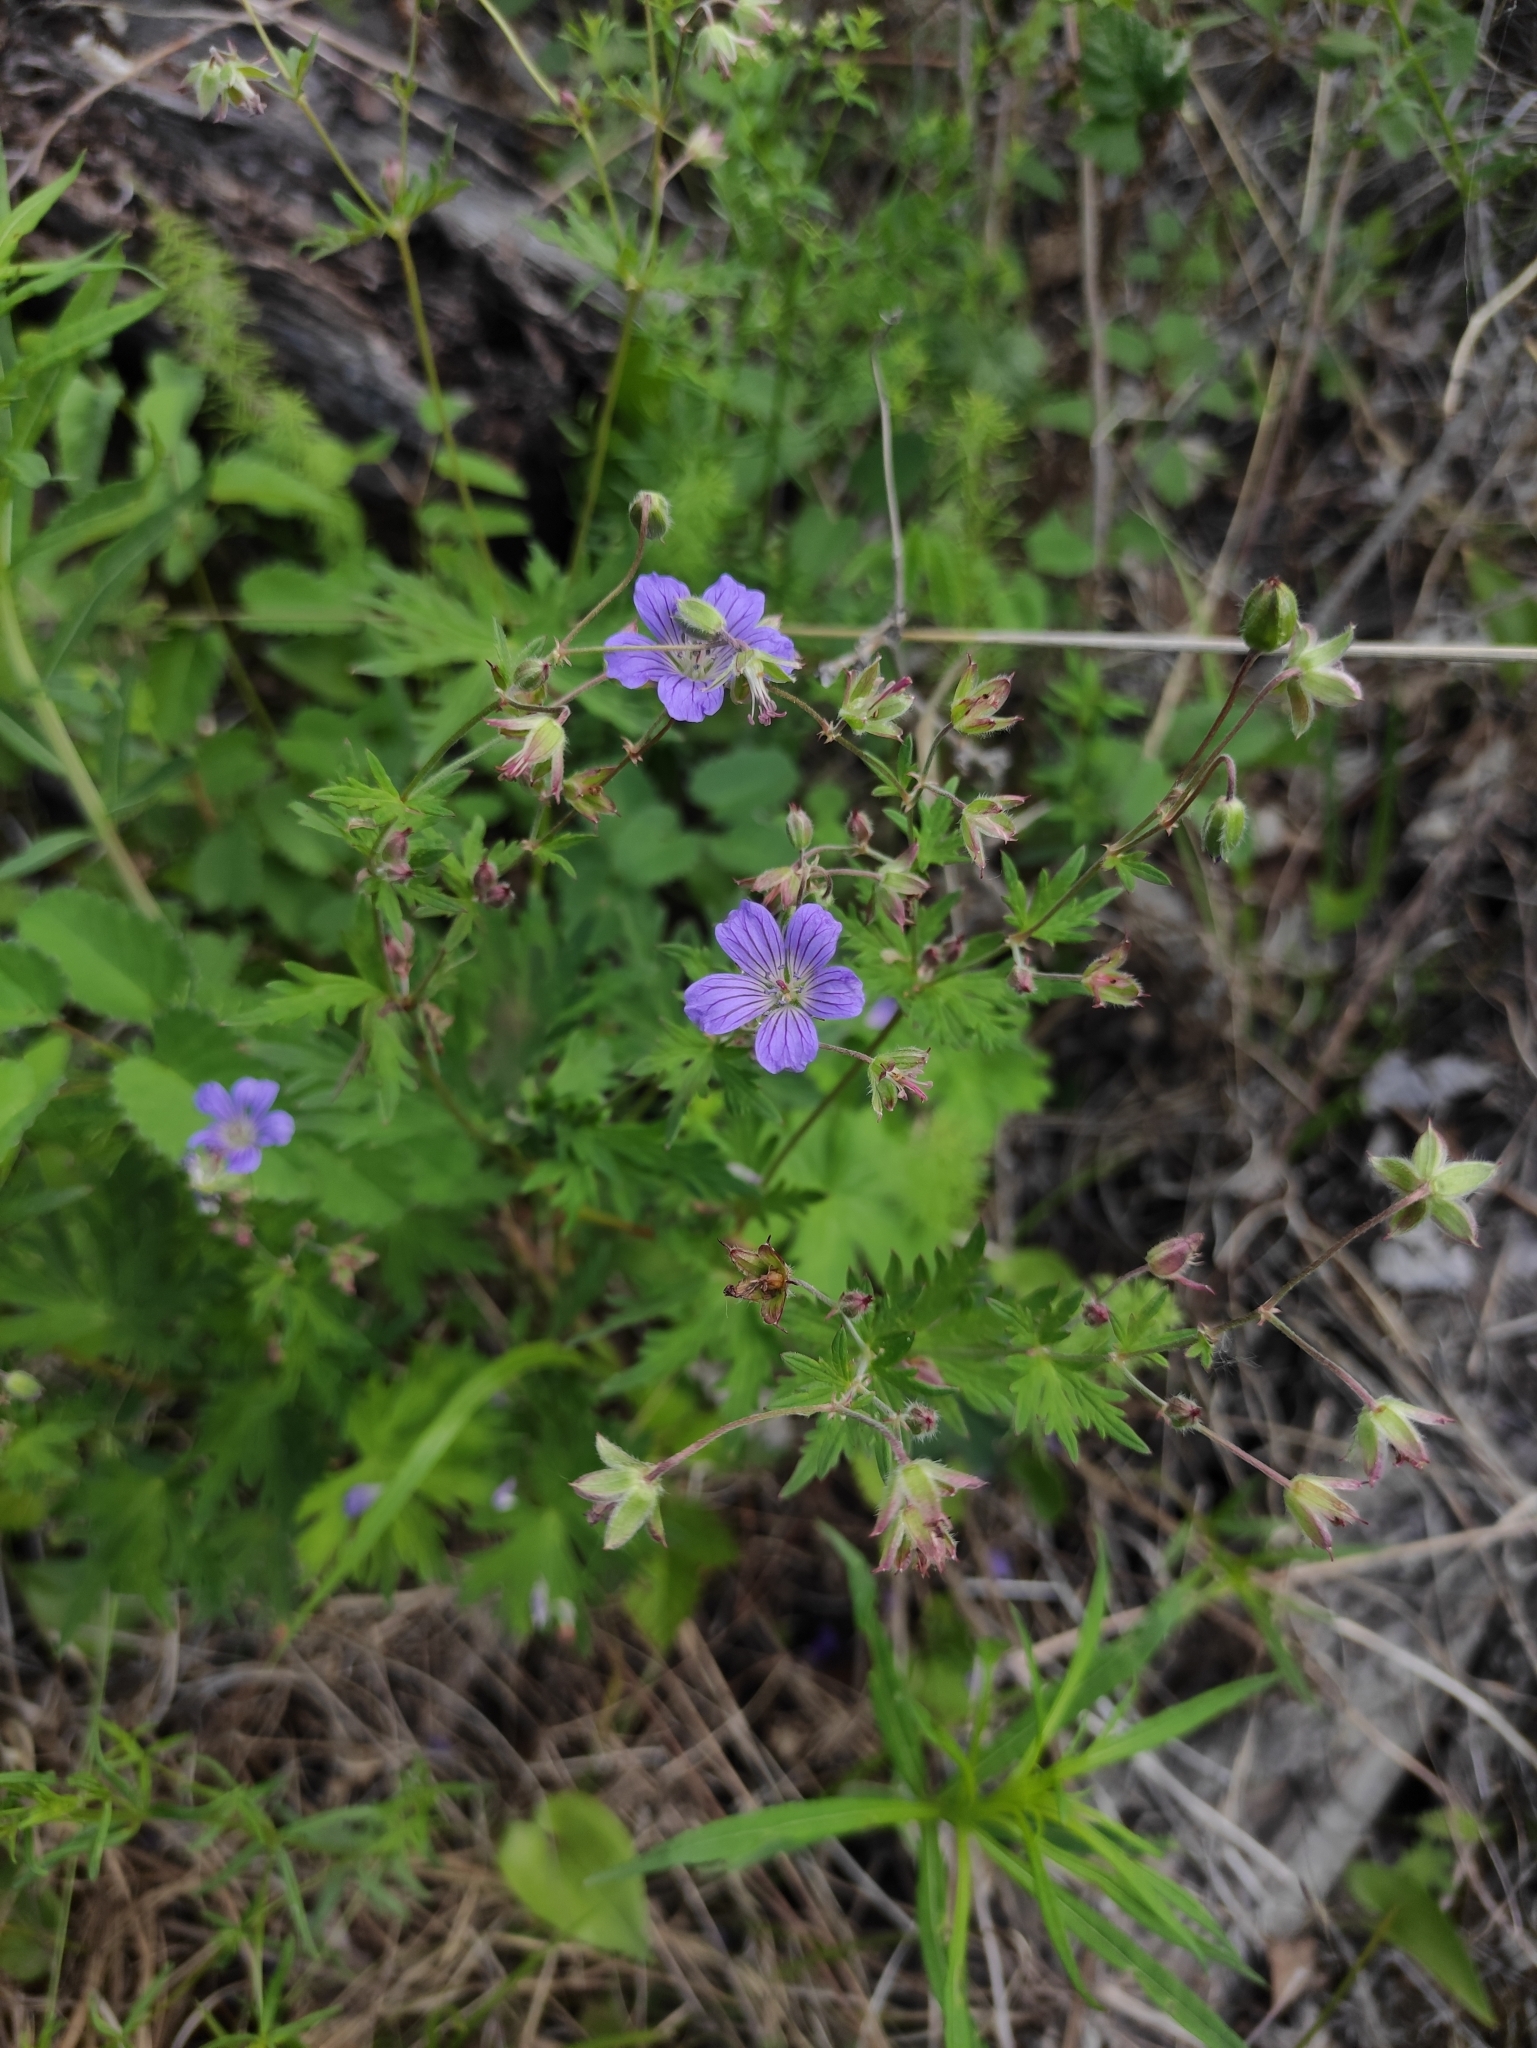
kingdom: Plantae
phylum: Tracheophyta
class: Magnoliopsida
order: Geraniales
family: Geraniaceae
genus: Geranium
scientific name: Geranium pseudosibiricum
